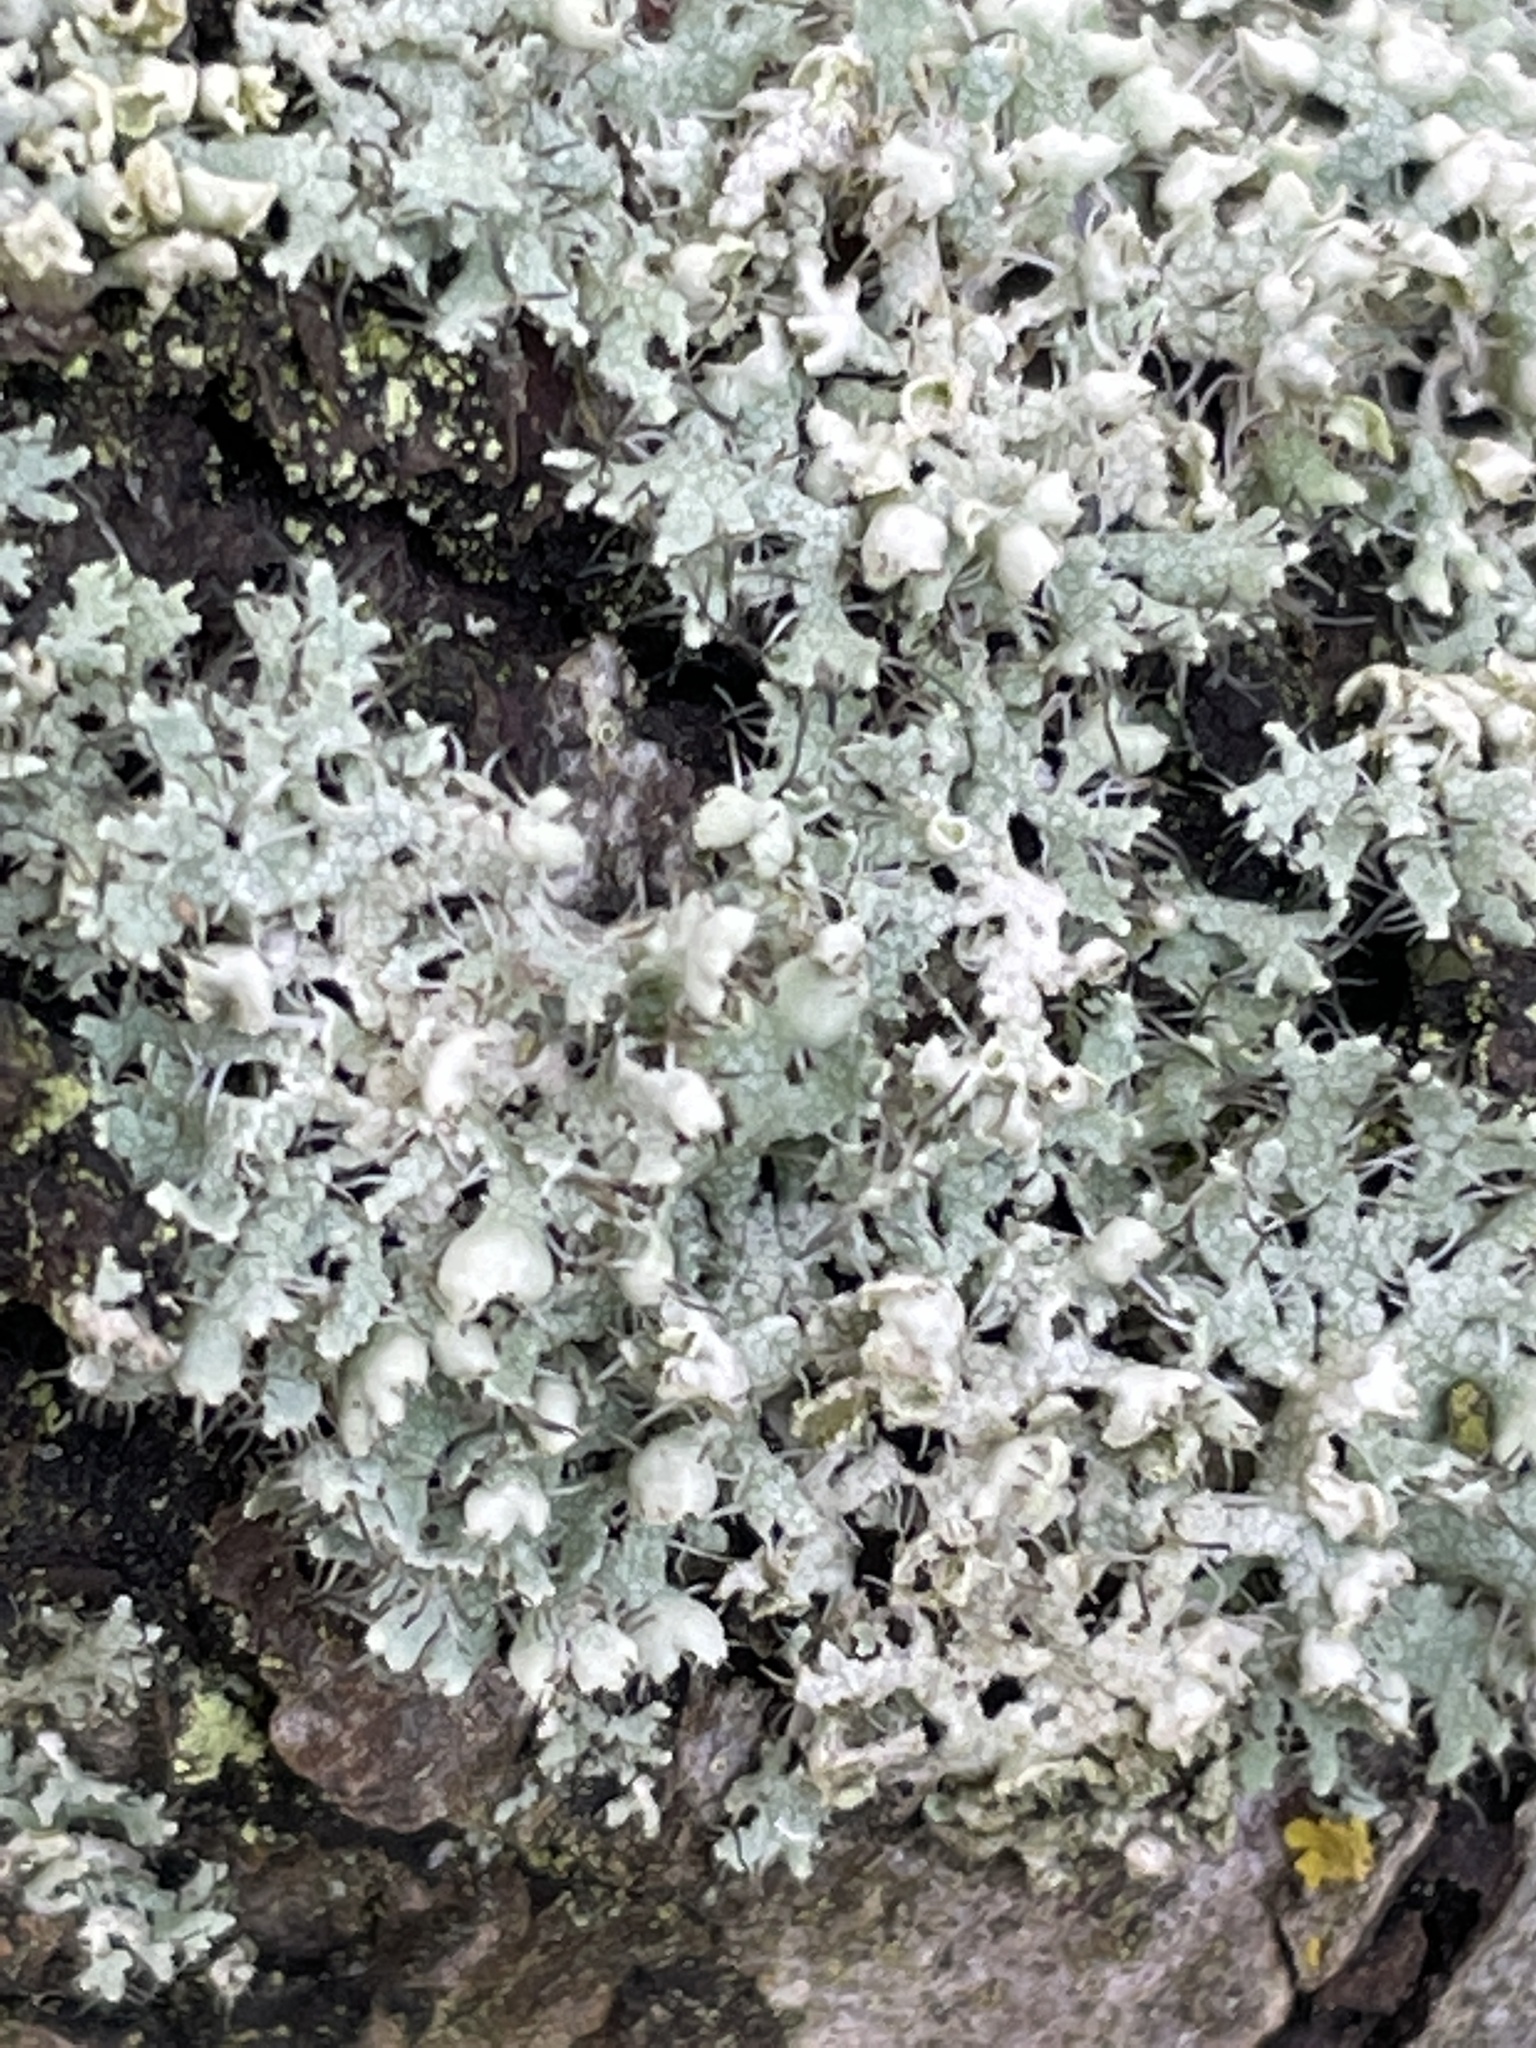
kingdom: Fungi
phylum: Ascomycota
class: Lecanoromycetes
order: Caliciales
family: Physciaceae
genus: Physcia
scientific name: Physcia adscendens
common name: Hooded rosette lichen
